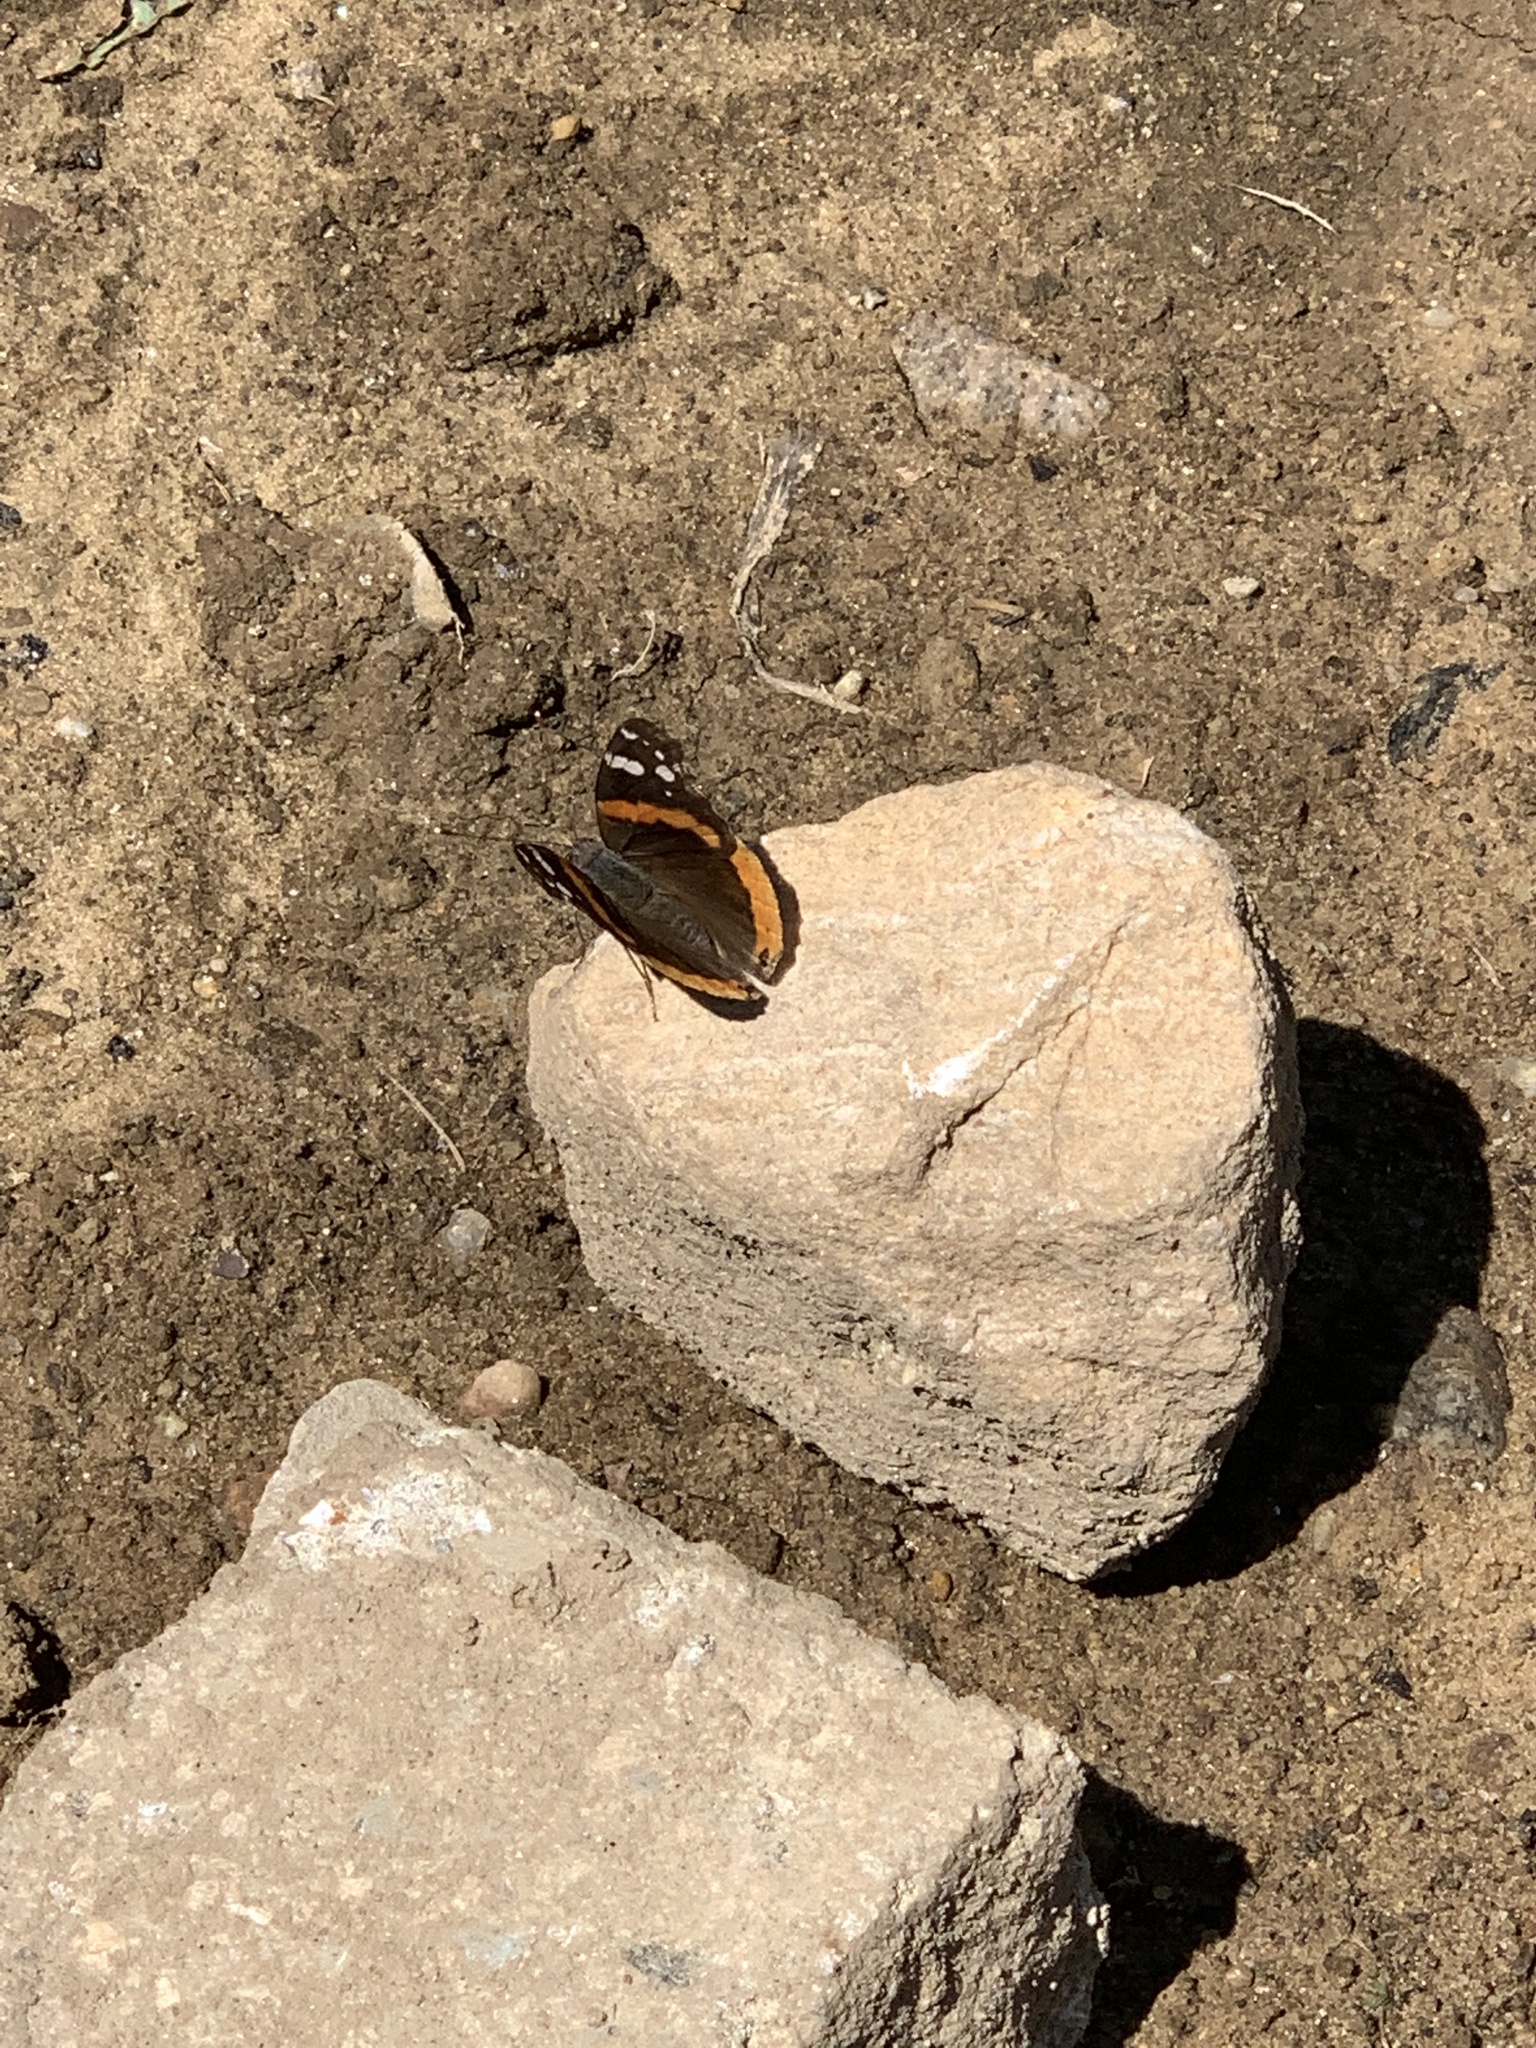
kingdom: Animalia
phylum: Arthropoda
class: Insecta
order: Lepidoptera
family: Nymphalidae
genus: Vanessa
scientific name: Vanessa atalanta
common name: Red admiral
